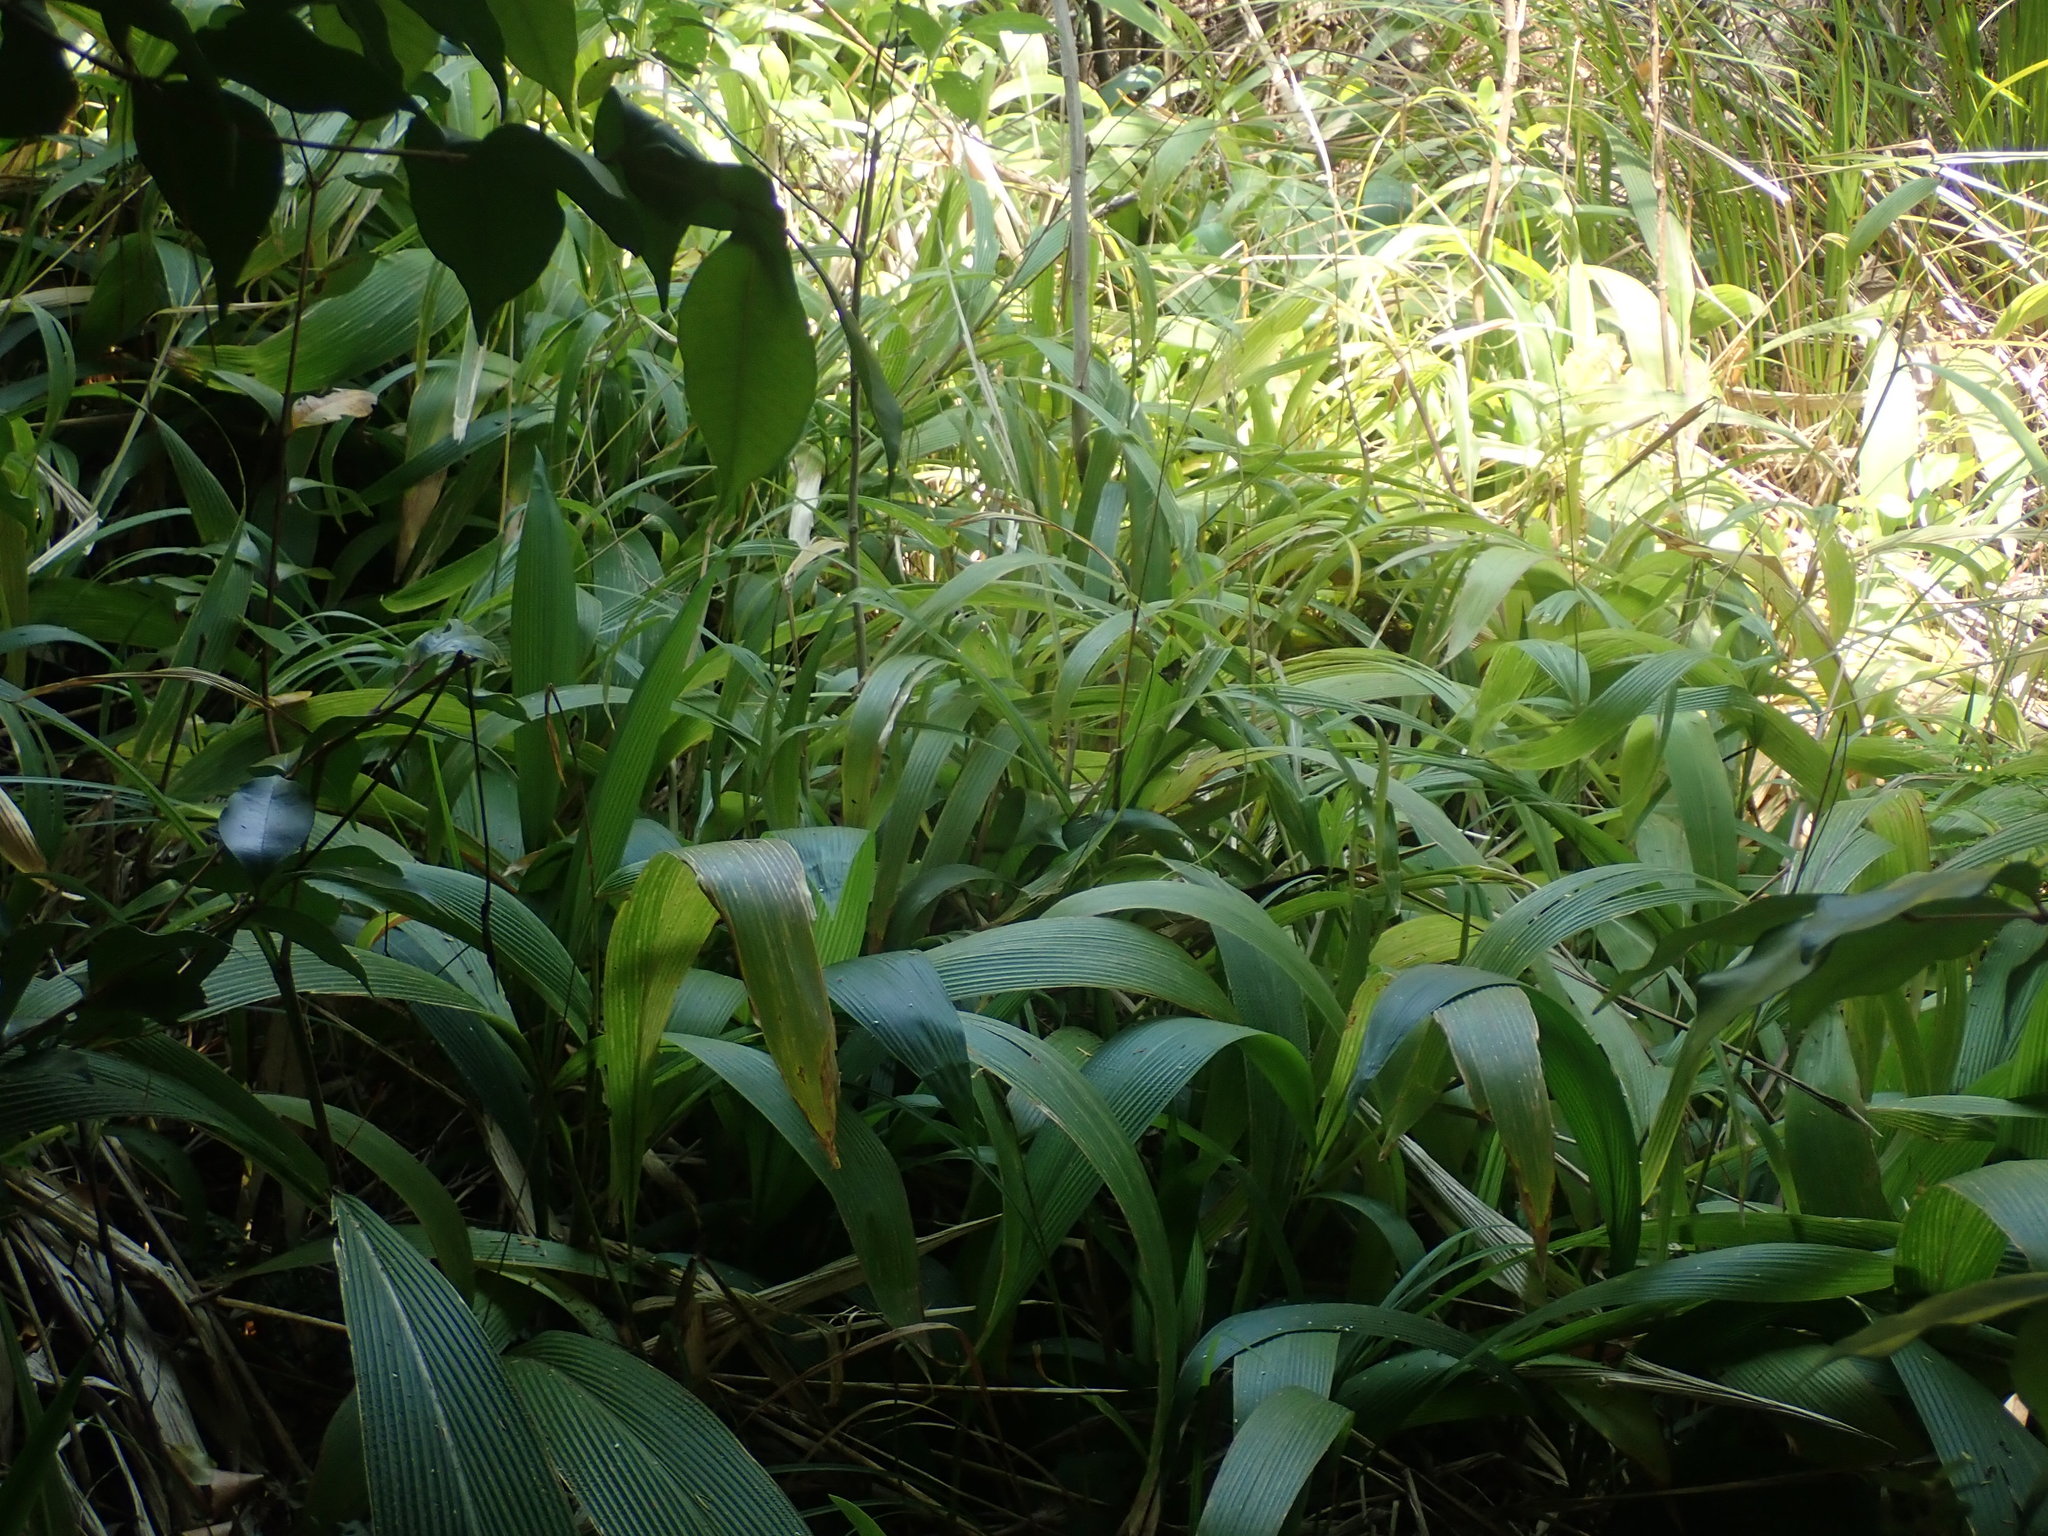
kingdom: Plantae
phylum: Tracheophyta
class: Liliopsida
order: Poales
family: Poaceae
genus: Setaria
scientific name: Setaria palmifolia
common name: Broadleaved bristlegrass
